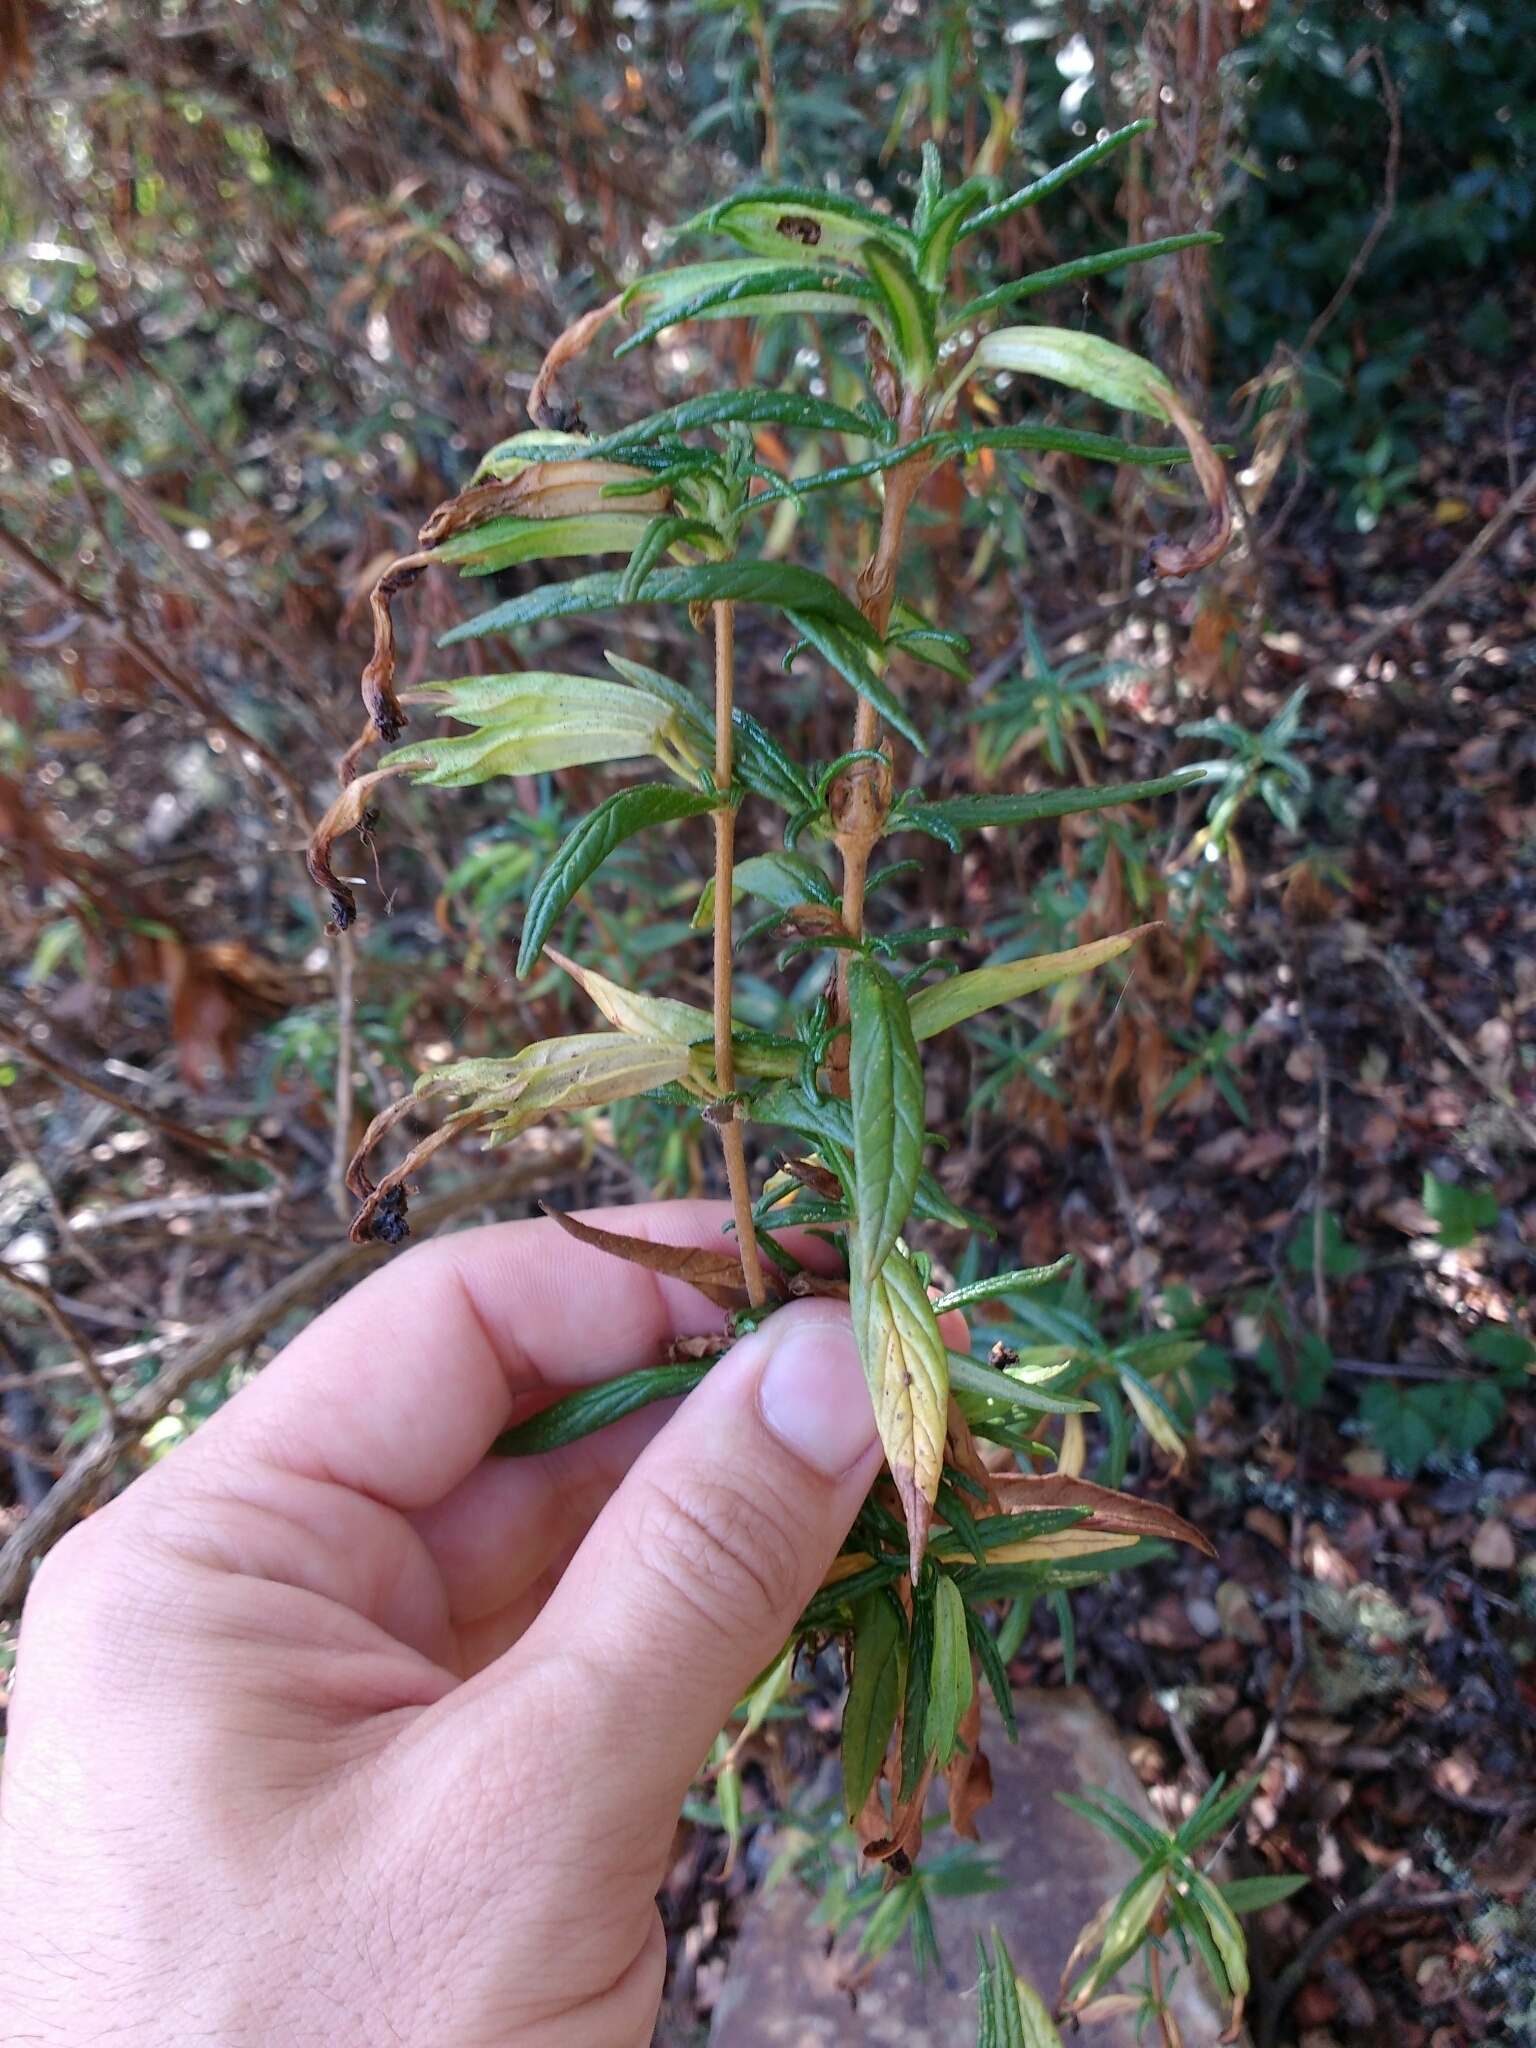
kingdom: Plantae
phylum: Tracheophyta
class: Magnoliopsida
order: Lamiales
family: Phrymaceae
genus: Diplacus
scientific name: Diplacus aurantiacus
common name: Bush monkey-flower
